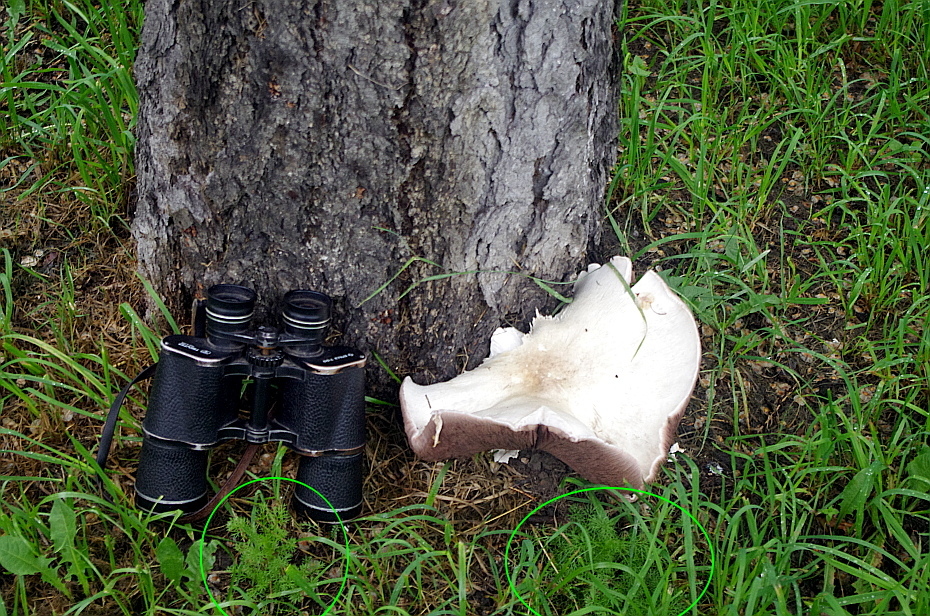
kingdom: Plantae
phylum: Tracheophyta
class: Magnoliopsida
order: Asterales
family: Asteraceae
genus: Tripleurospermum
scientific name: Tripleurospermum inodorum
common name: Scentless mayweed
